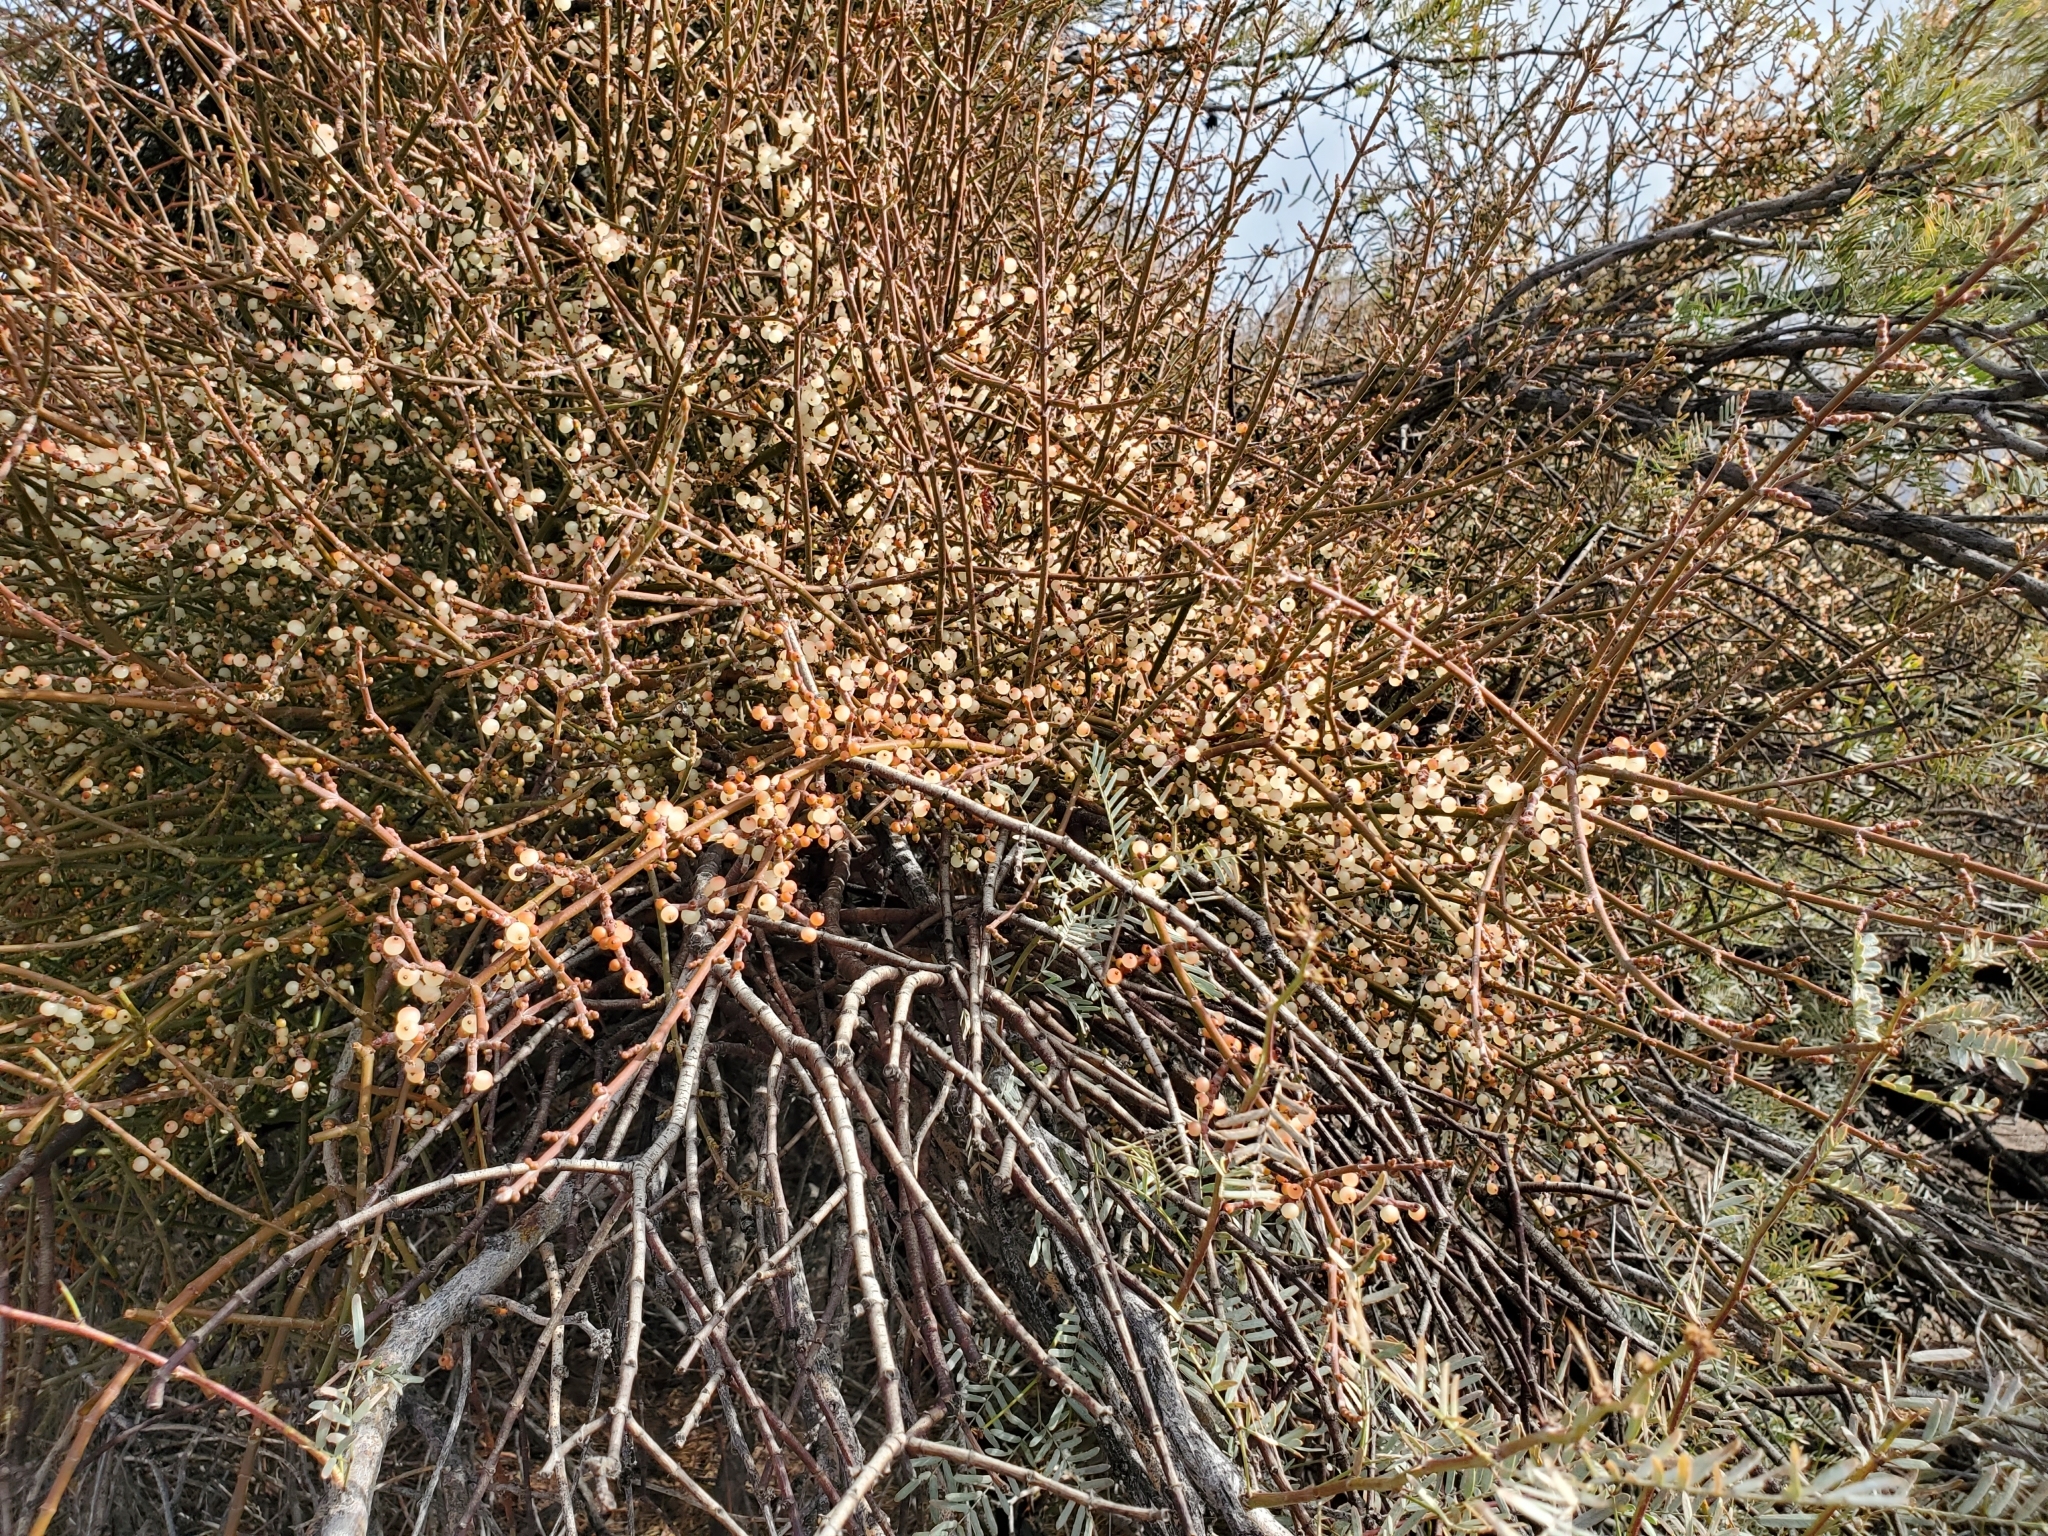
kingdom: Plantae
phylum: Tracheophyta
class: Magnoliopsida
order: Fabales
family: Fabaceae
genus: Prosopis
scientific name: Prosopis pubescens
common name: Screw-bean
